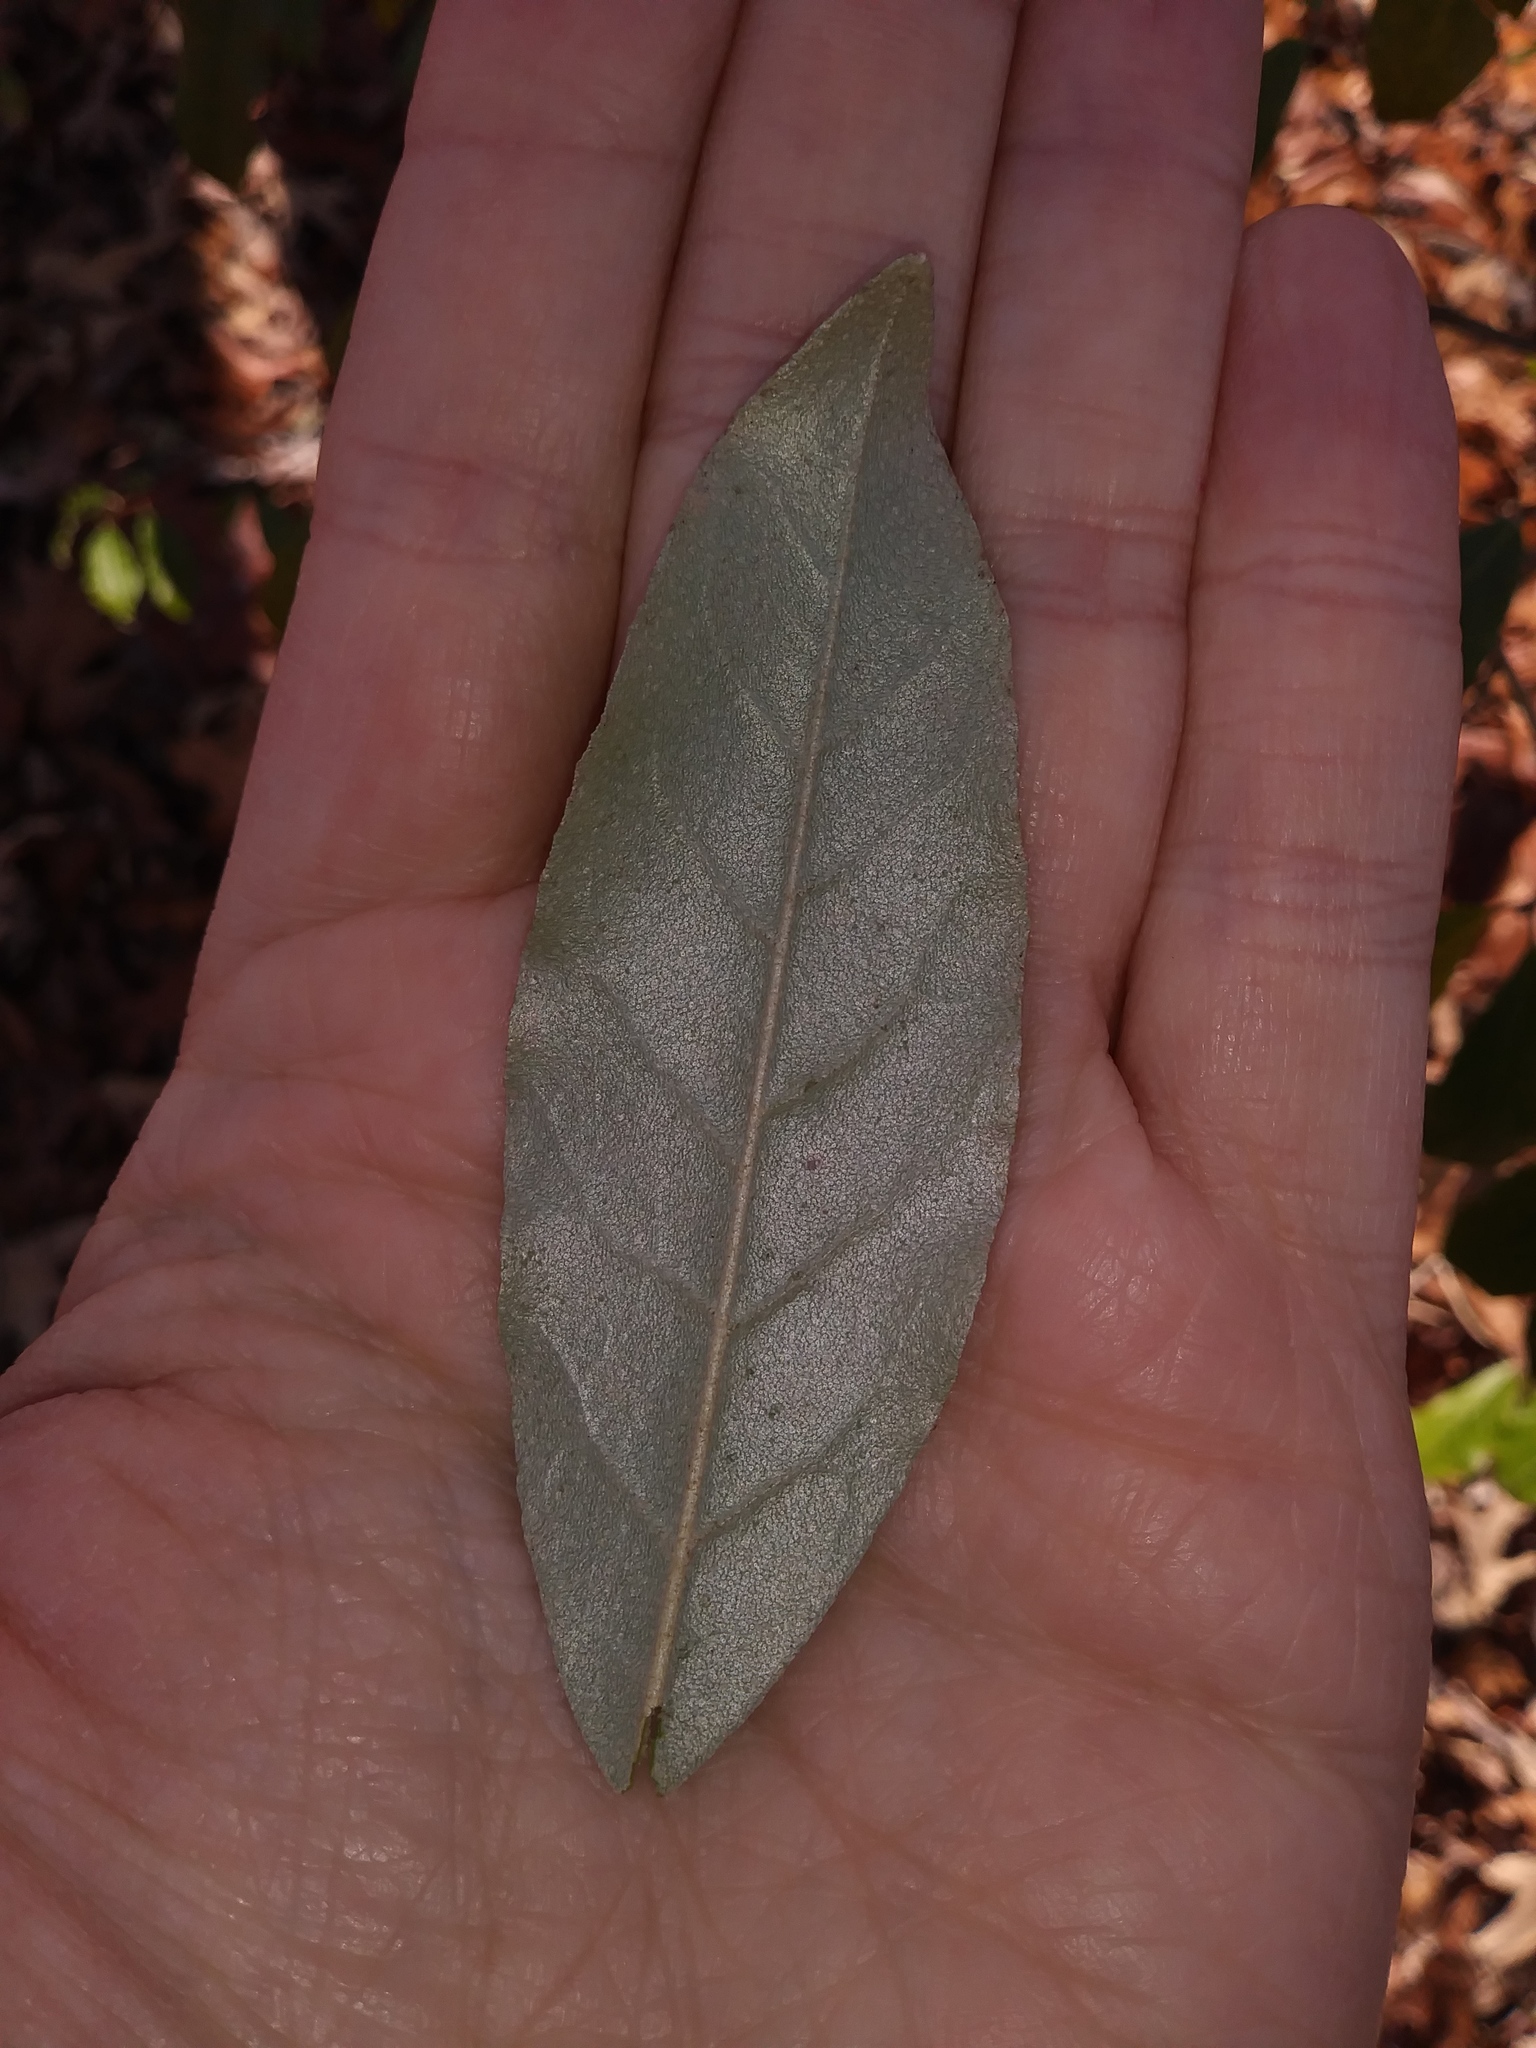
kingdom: Plantae
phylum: Tracheophyta
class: Magnoliopsida
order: Rosales
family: Elaeagnaceae
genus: Elaeagnus
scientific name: Elaeagnus umbellata
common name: Autumn olive
